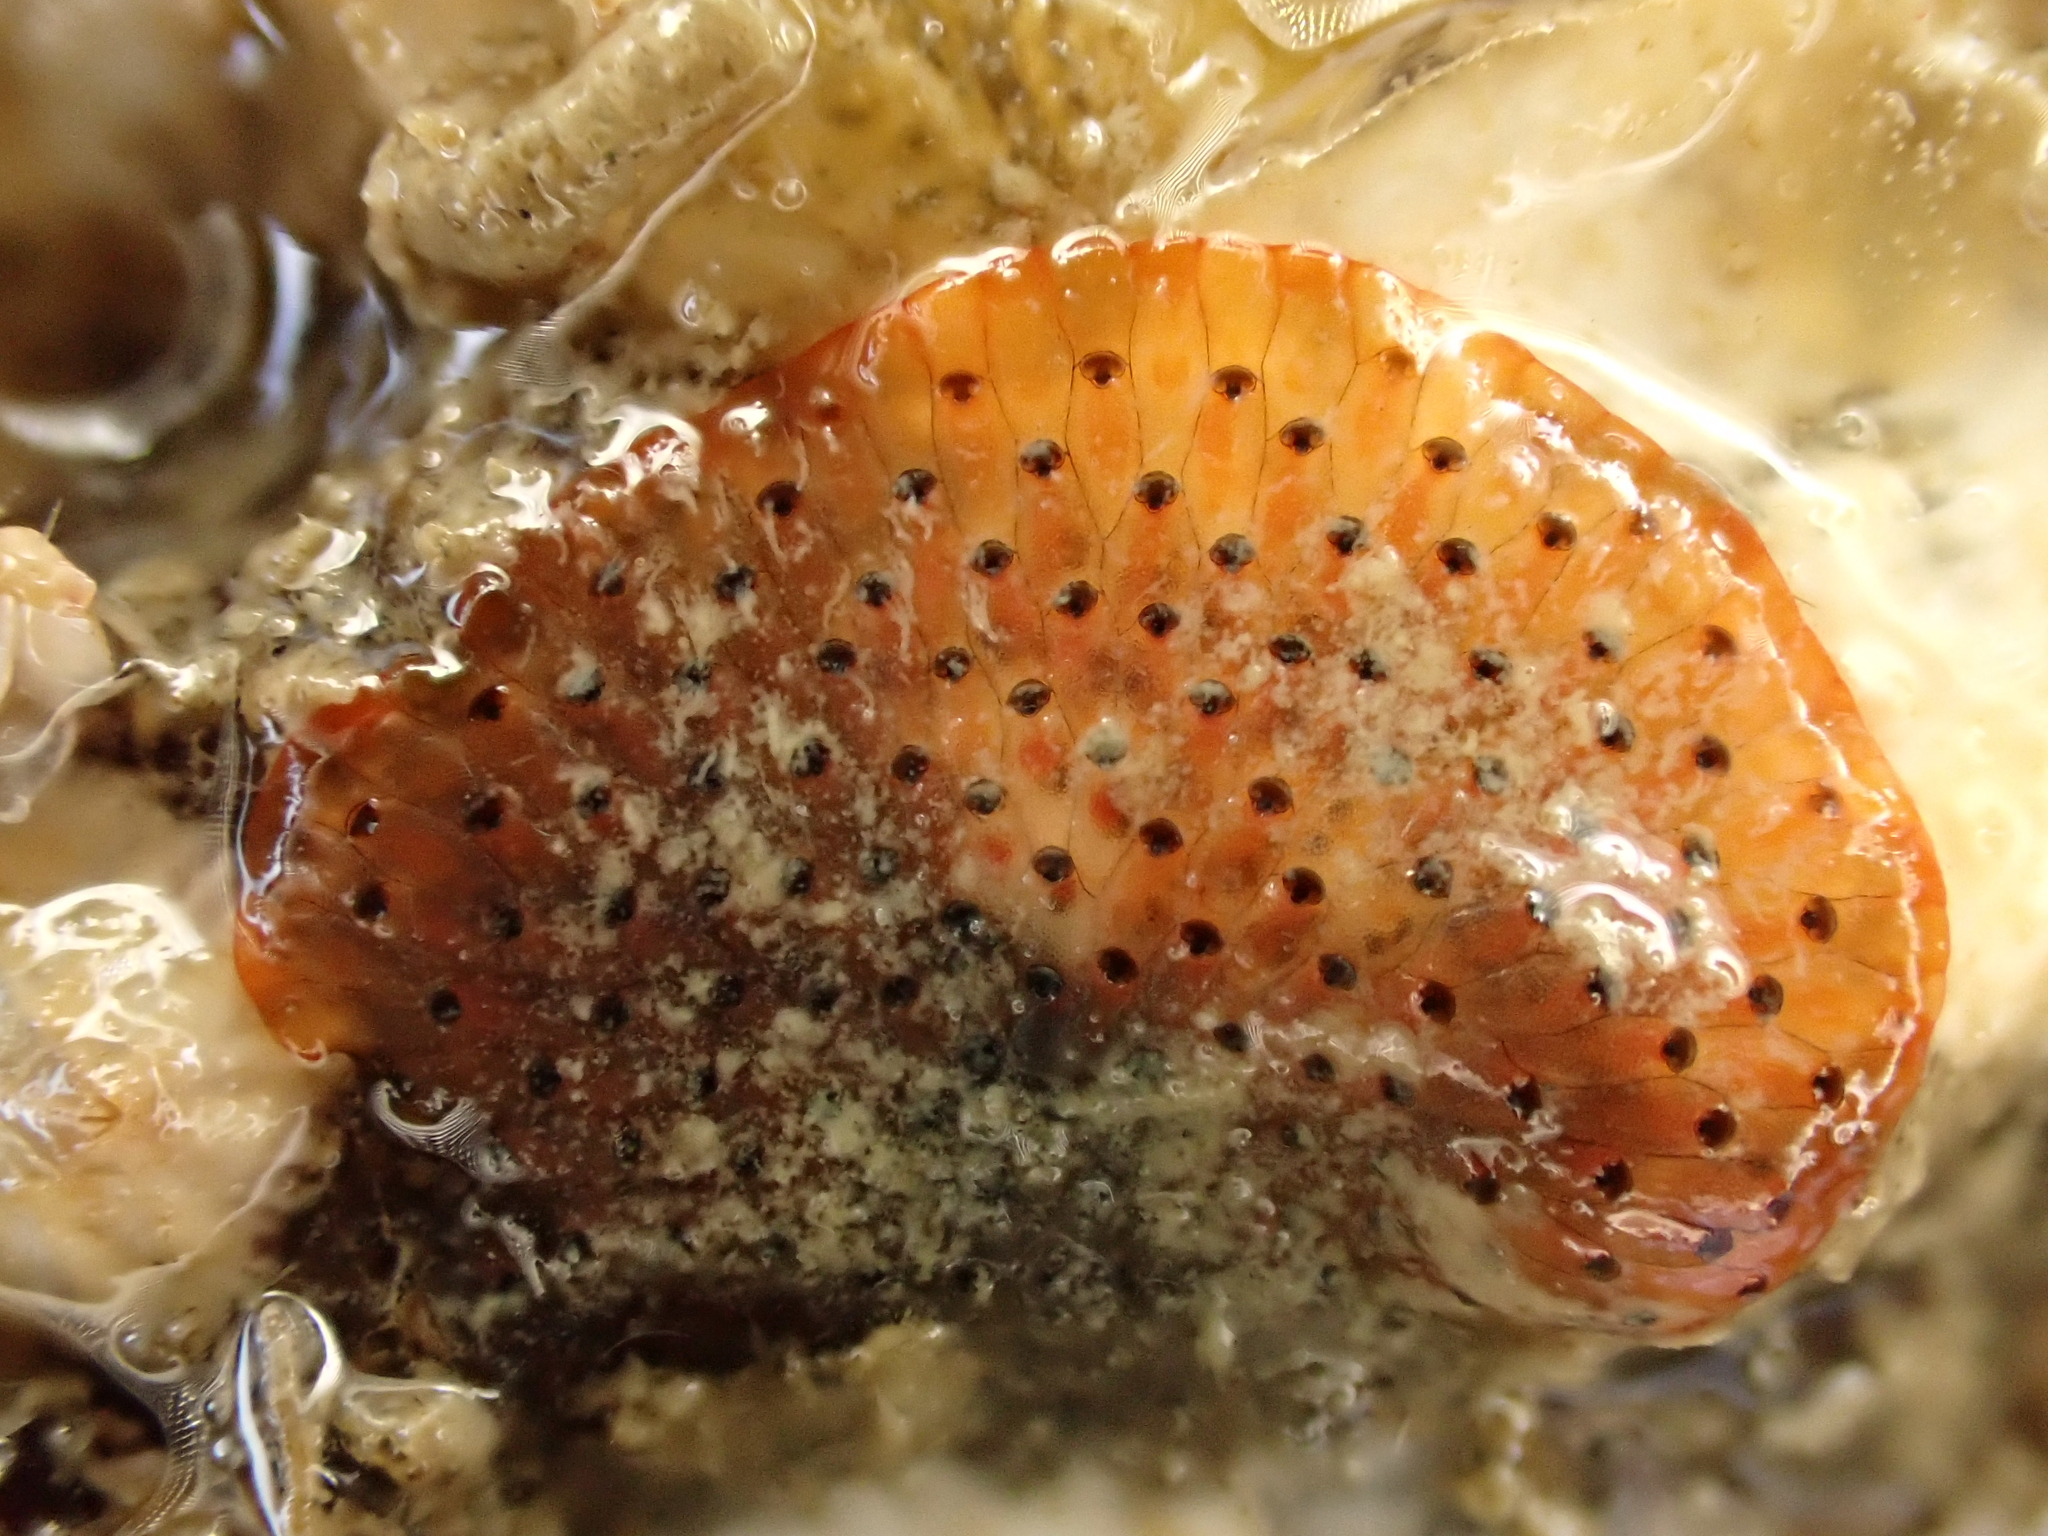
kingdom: Animalia
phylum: Bryozoa
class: Gymnolaemata
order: Cheilostomatida
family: Watersiporidae
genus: Watersipora
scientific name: Watersipora subatra
